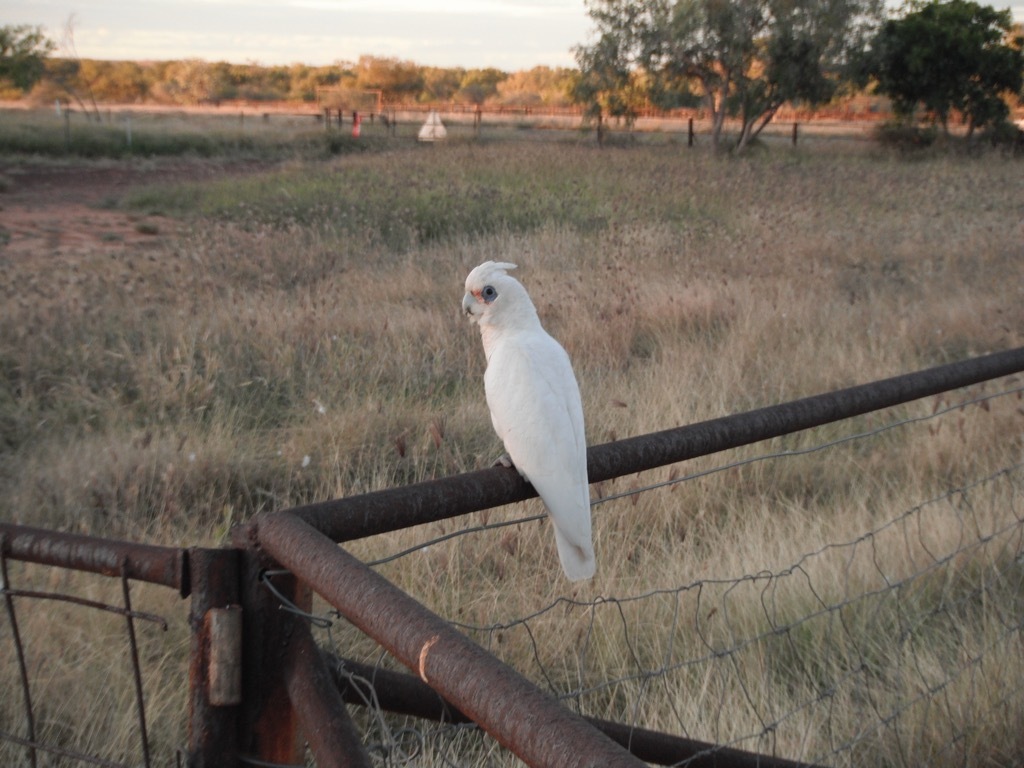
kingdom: Animalia
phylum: Chordata
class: Aves
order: Psittaciformes
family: Psittacidae
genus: Cacatua
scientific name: Cacatua sanguinea
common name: Little corella
